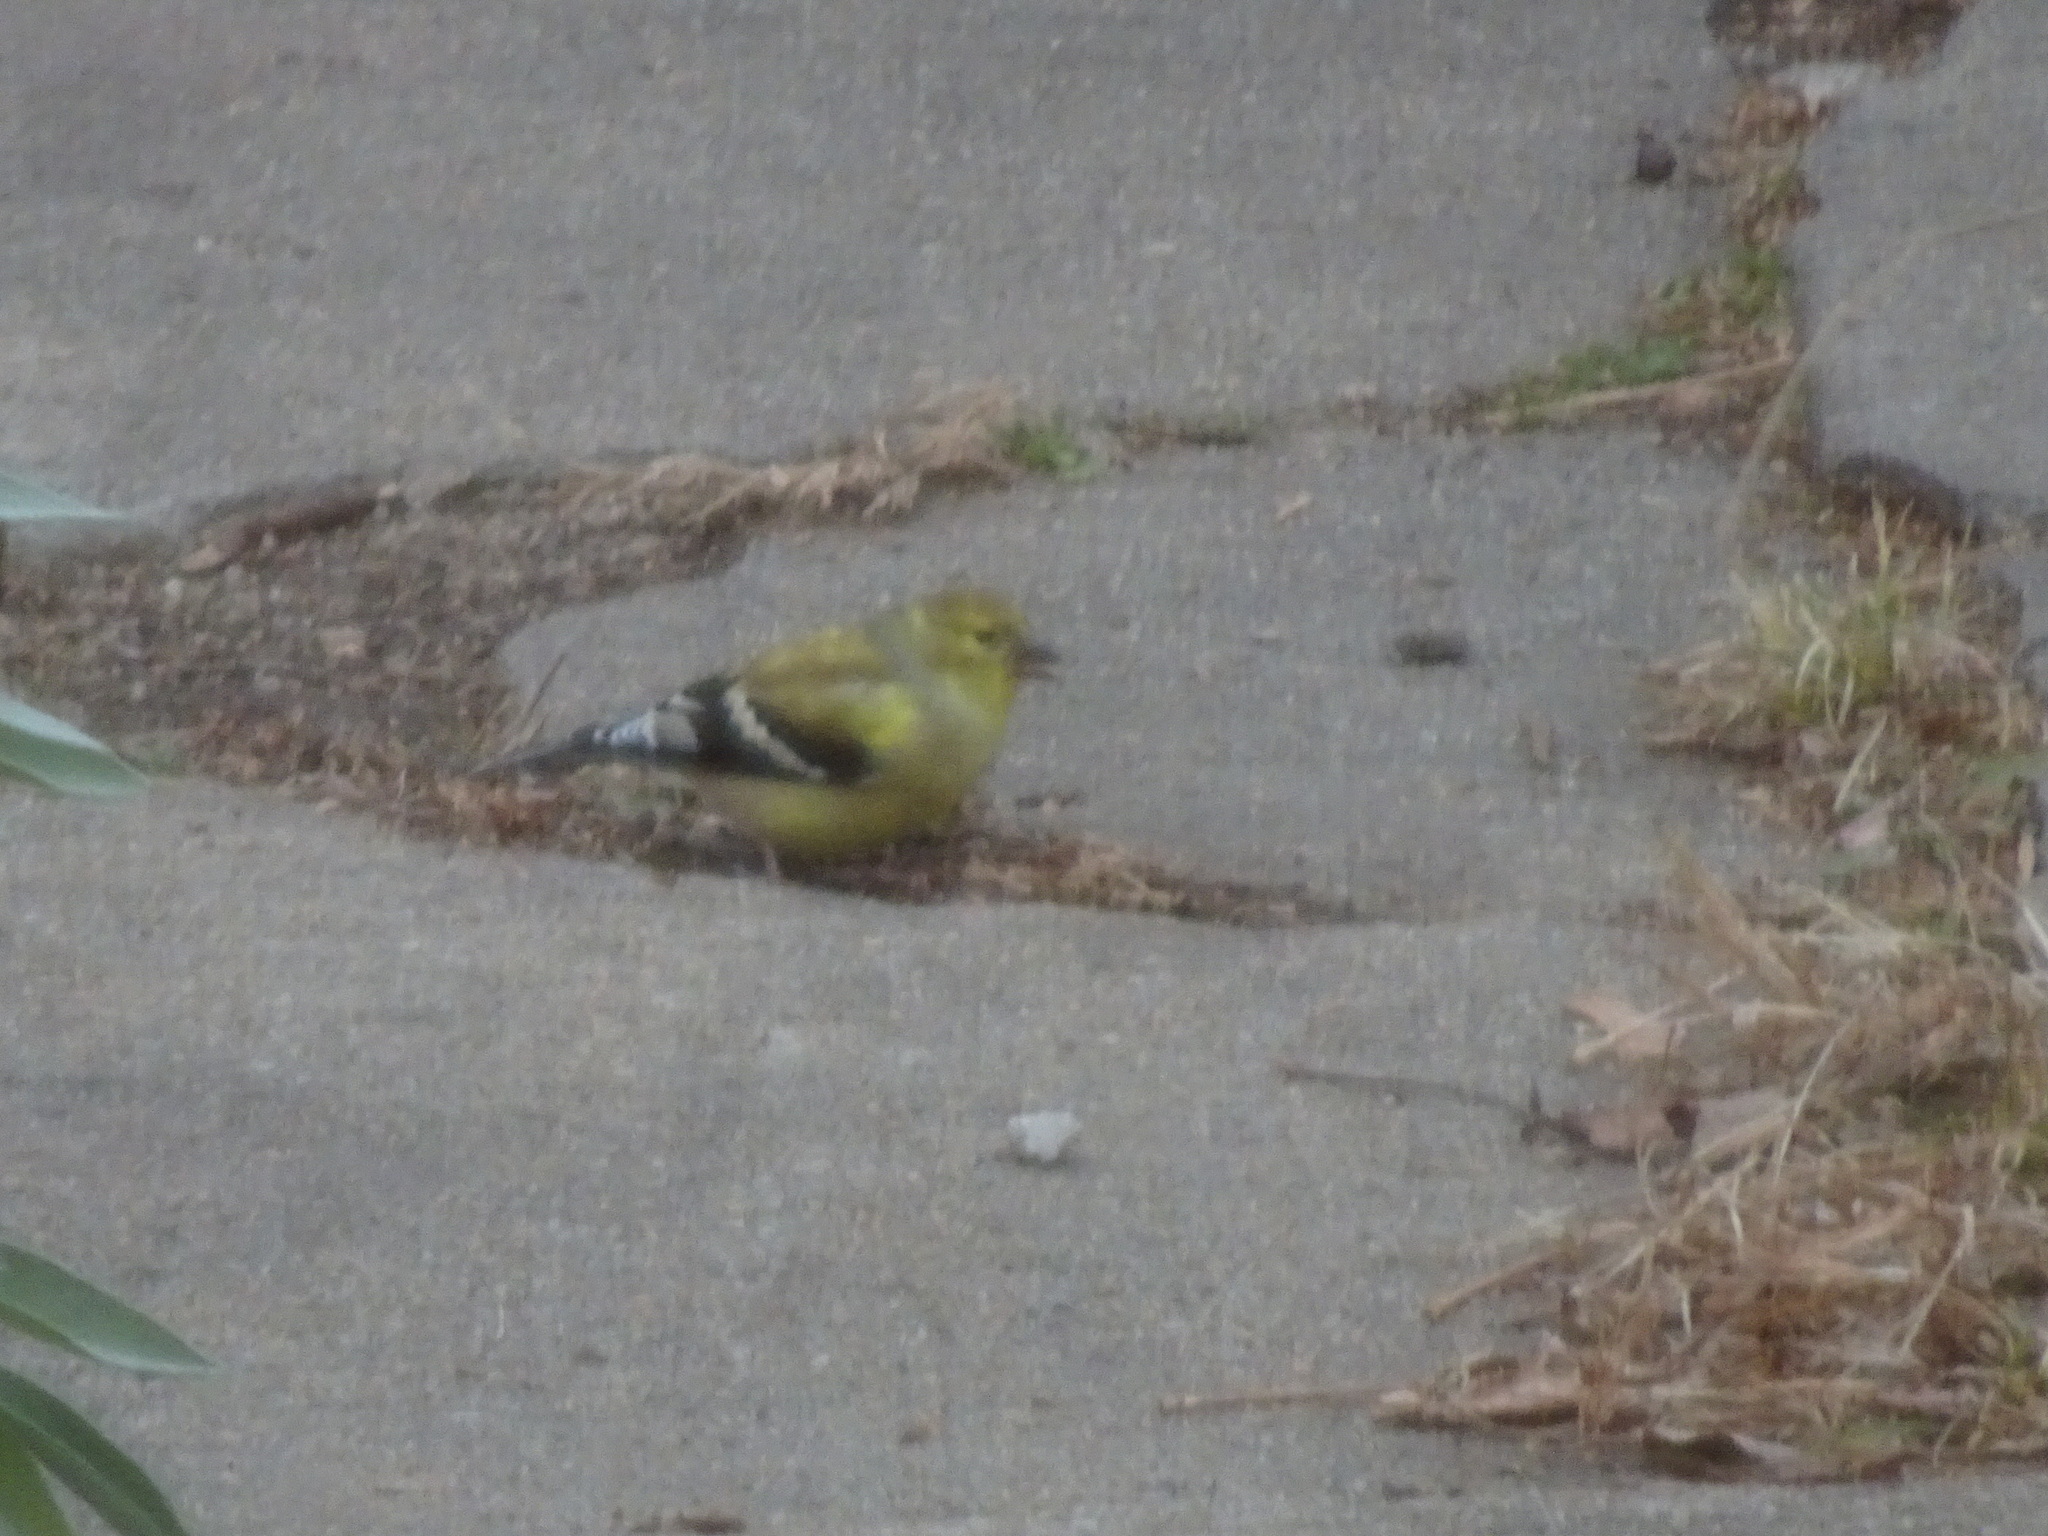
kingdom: Animalia
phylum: Chordata
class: Aves
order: Passeriformes
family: Fringillidae
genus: Spinus
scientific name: Spinus tristis
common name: American goldfinch
